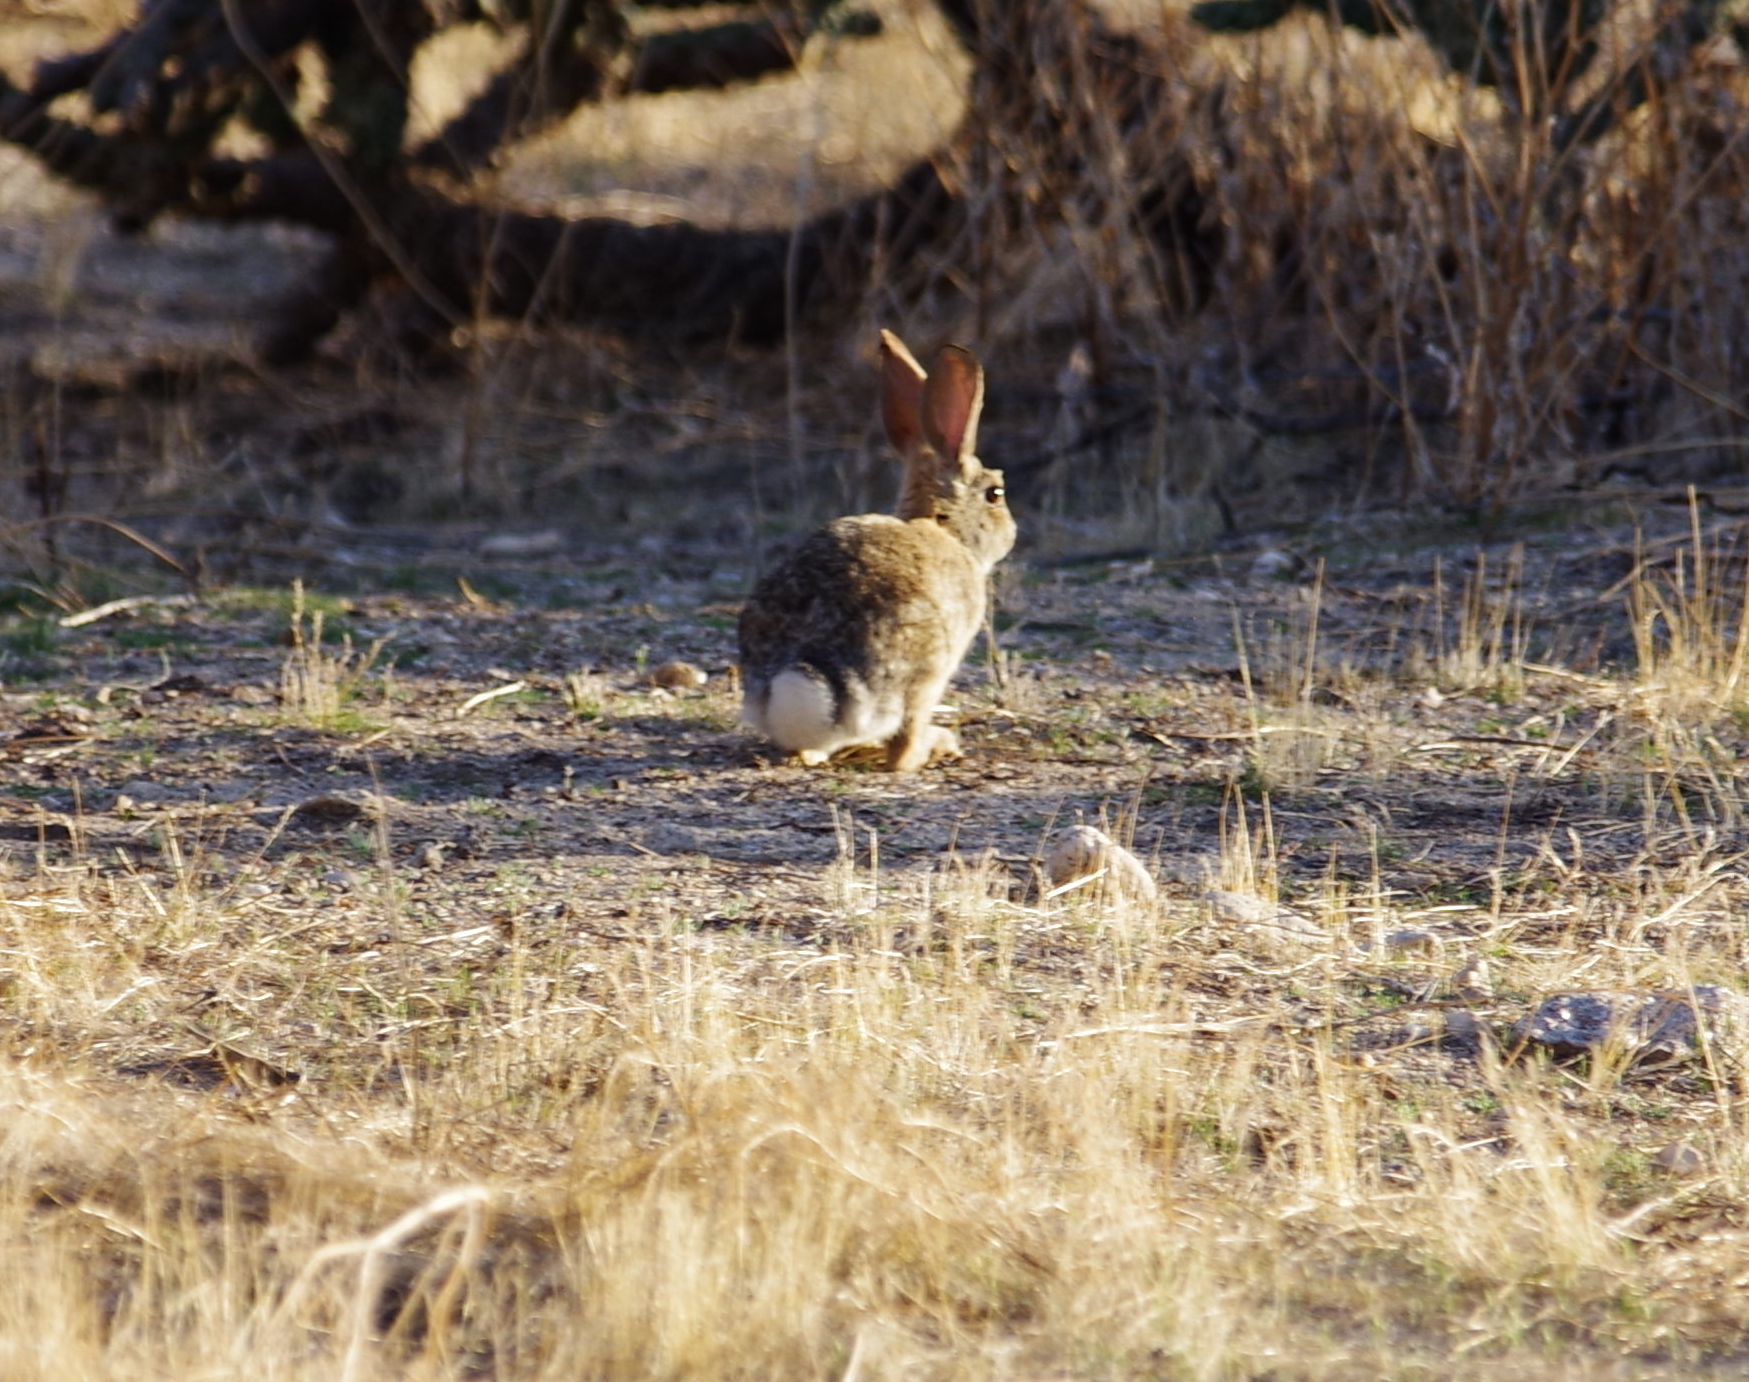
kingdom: Animalia
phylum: Chordata
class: Mammalia
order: Lagomorpha
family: Leporidae
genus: Sylvilagus
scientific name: Sylvilagus audubonii
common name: Desert cottontail
